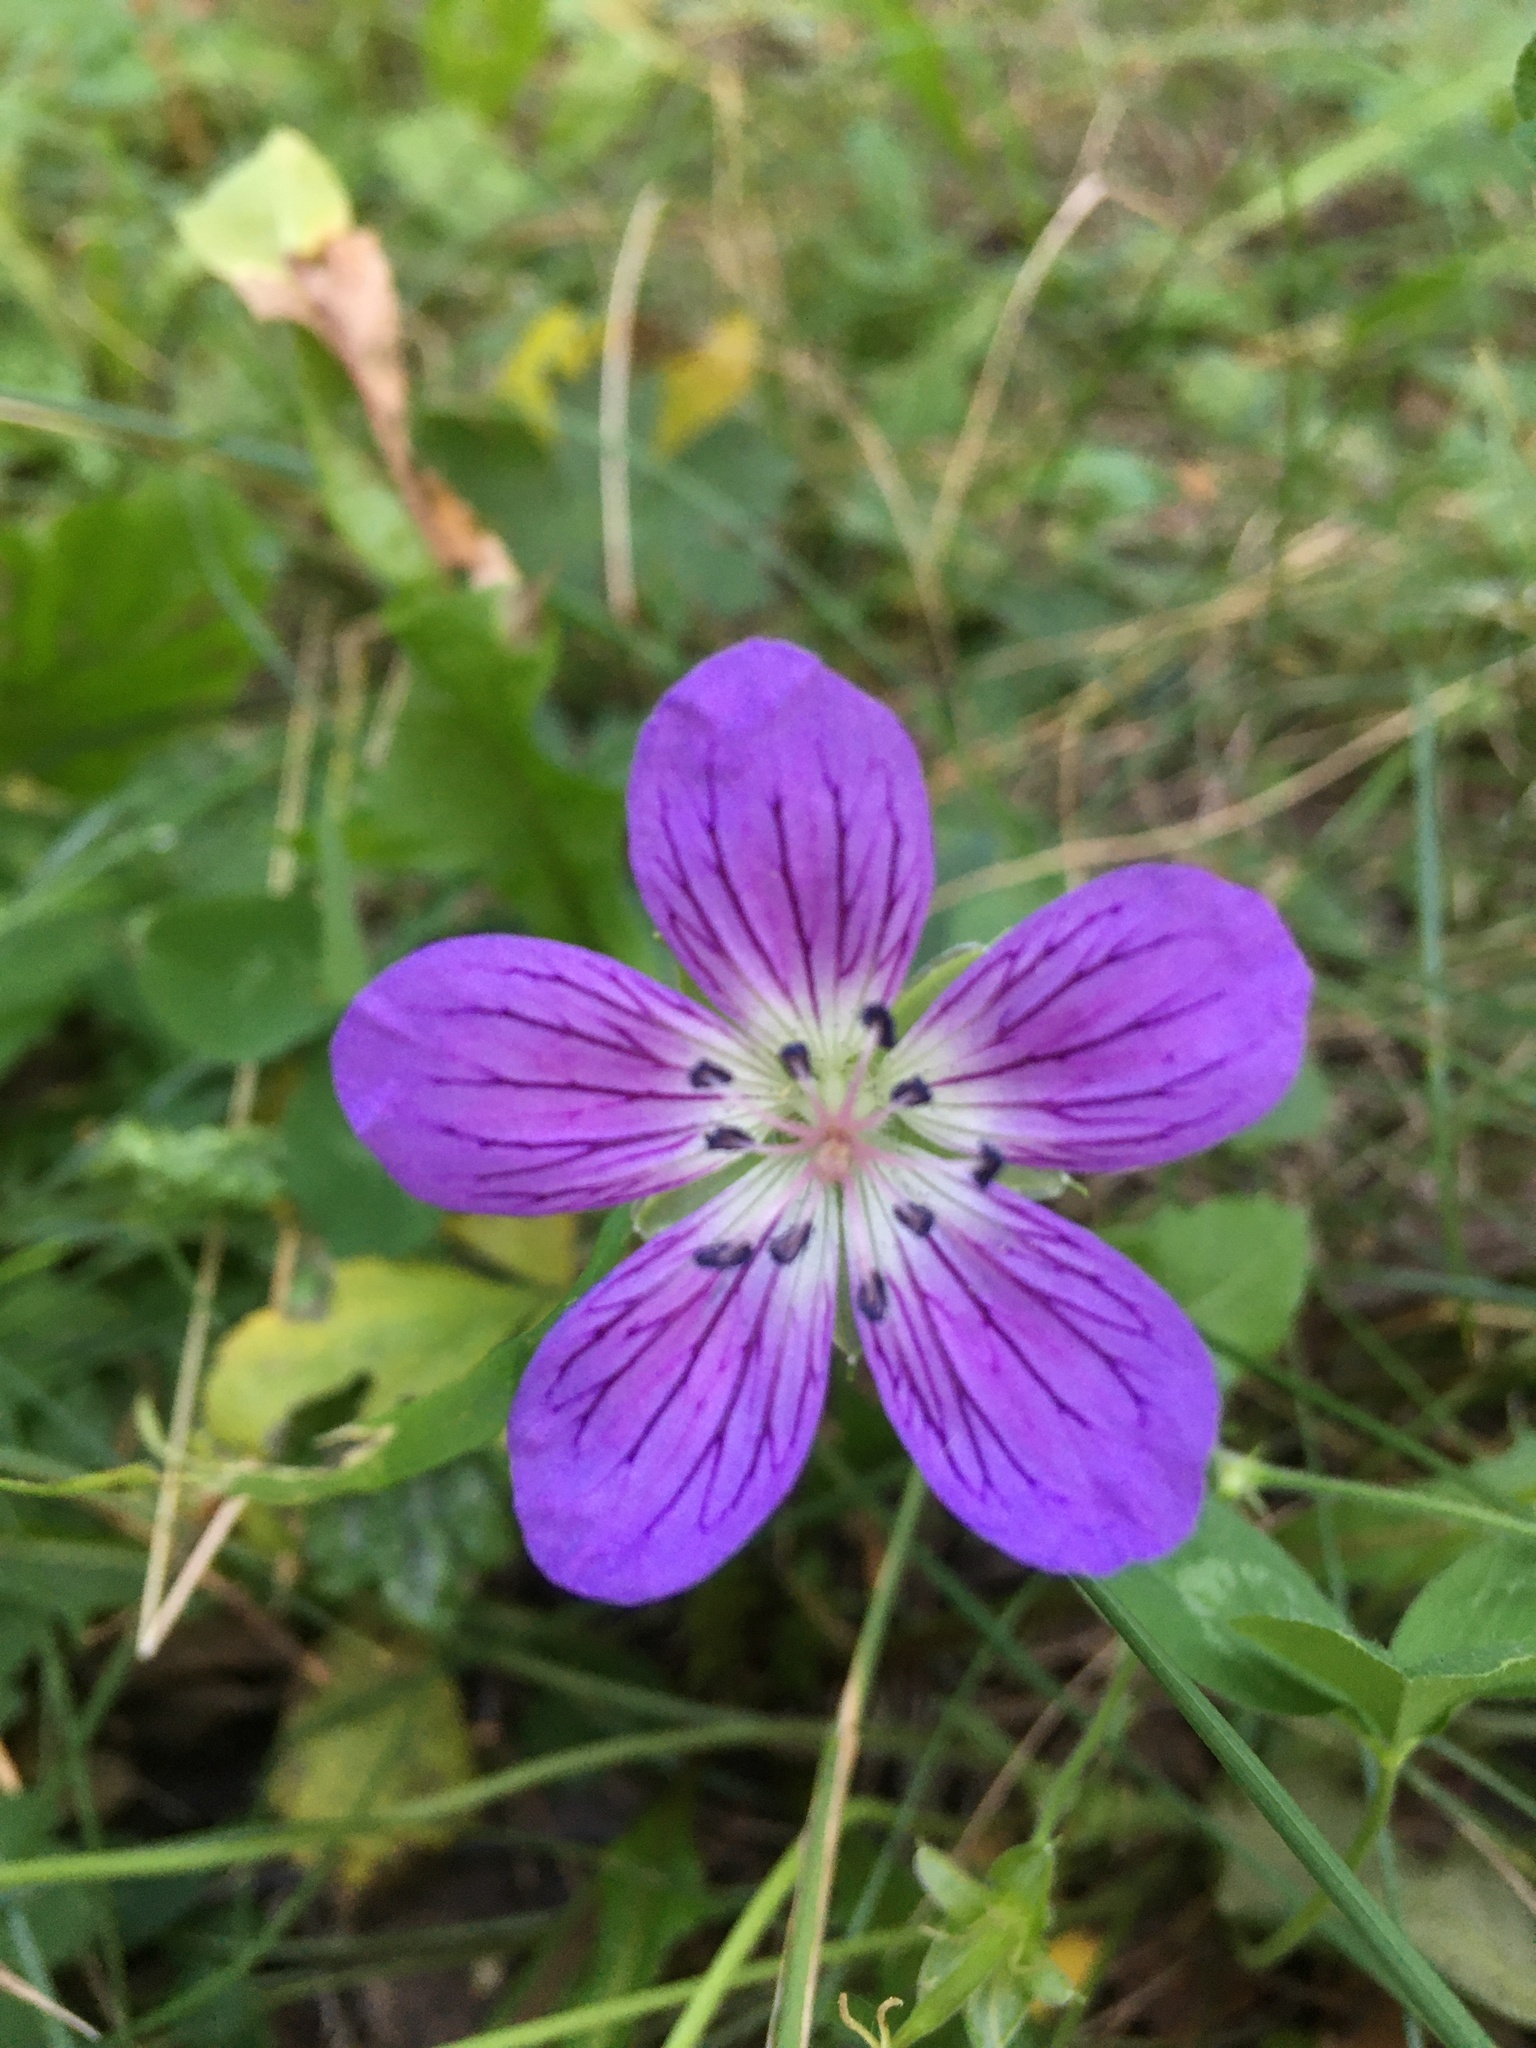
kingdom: Plantae
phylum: Tracheophyta
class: Magnoliopsida
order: Geraniales
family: Geraniaceae
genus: Geranium
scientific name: Geranium wlassovianum
